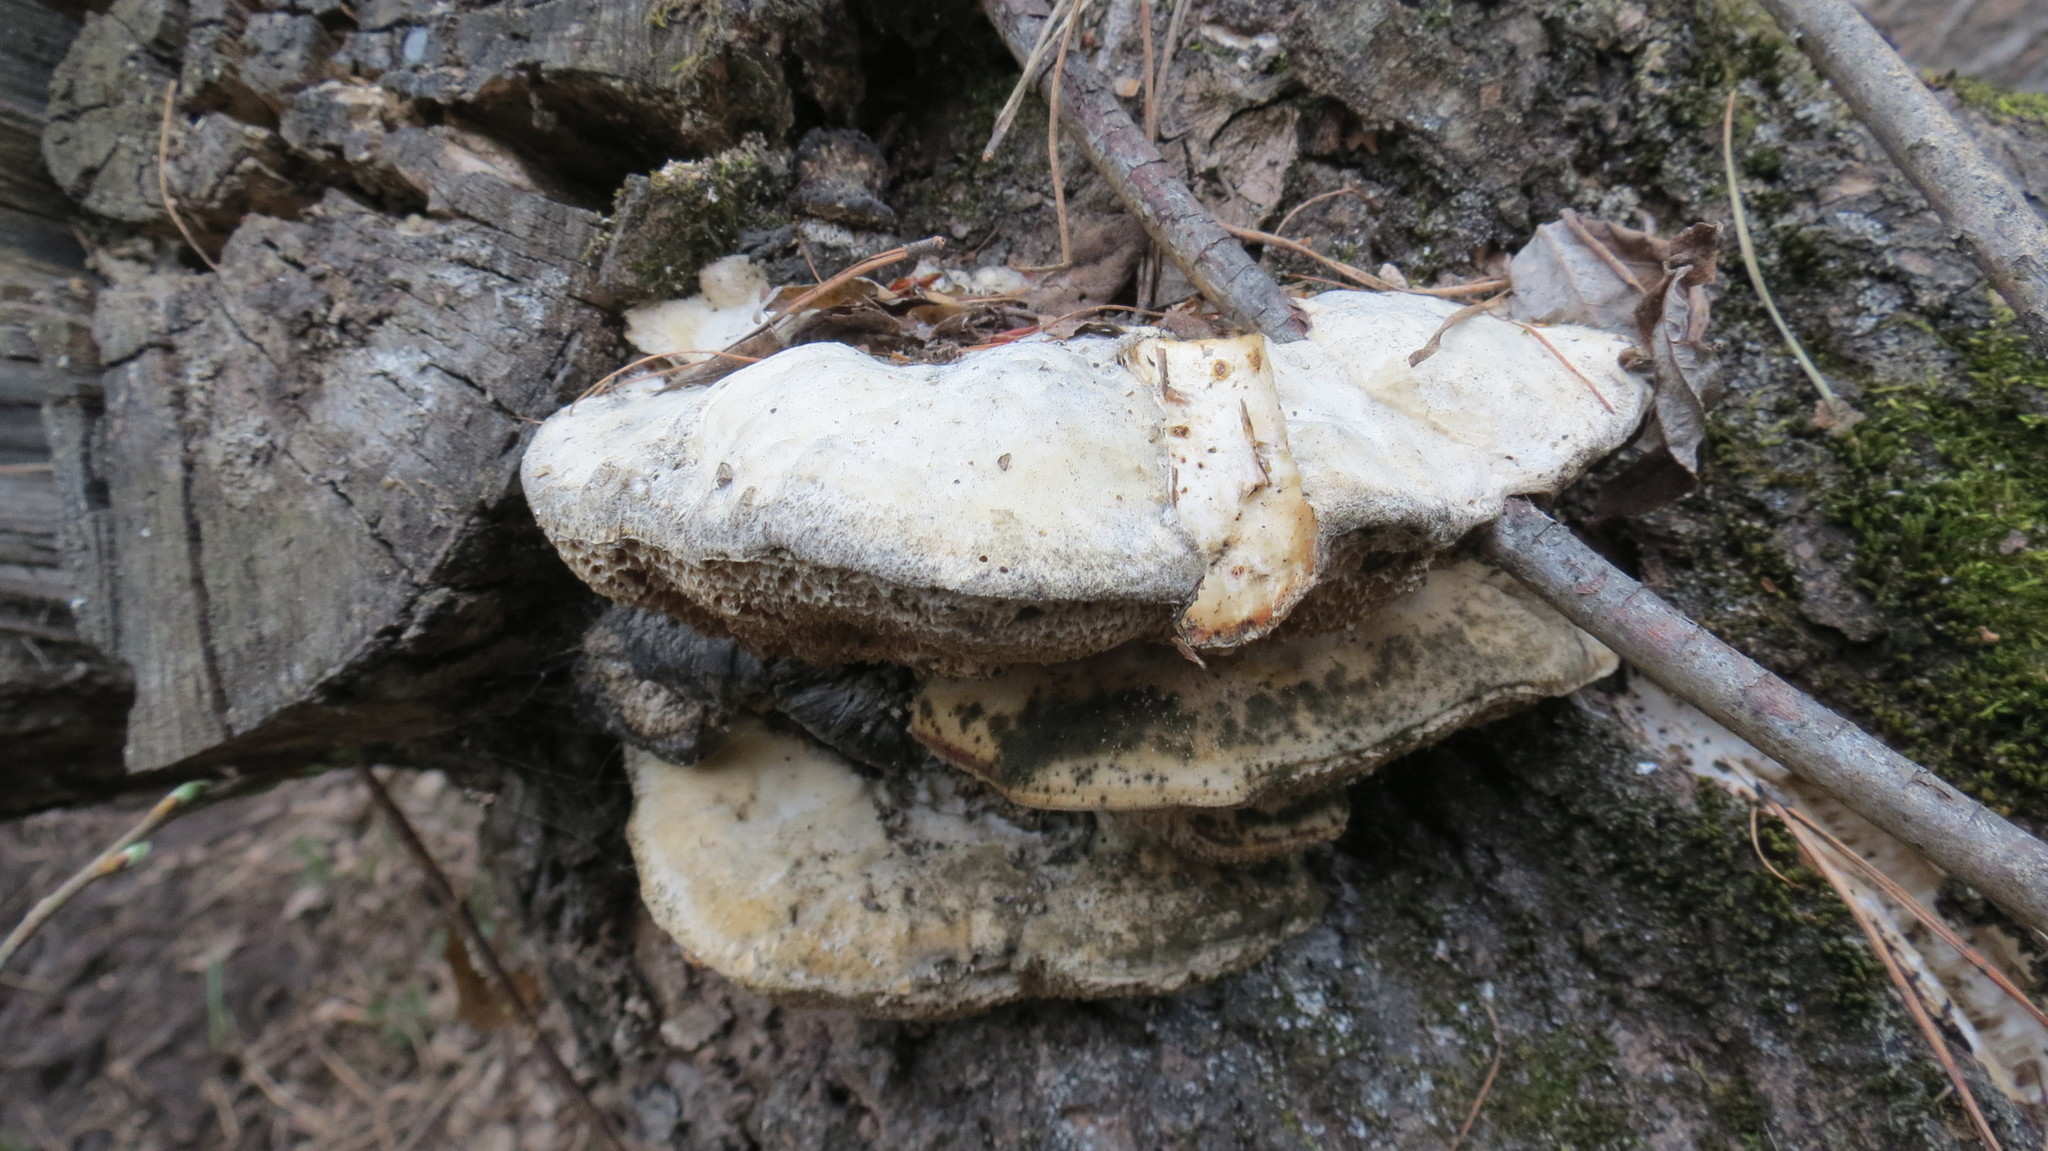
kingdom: Fungi
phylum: Basidiomycota
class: Agaricomycetes
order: Polyporales
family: Polyporaceae
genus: Haploporus
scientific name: Haploporus odorus
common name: Aniseed polypore
